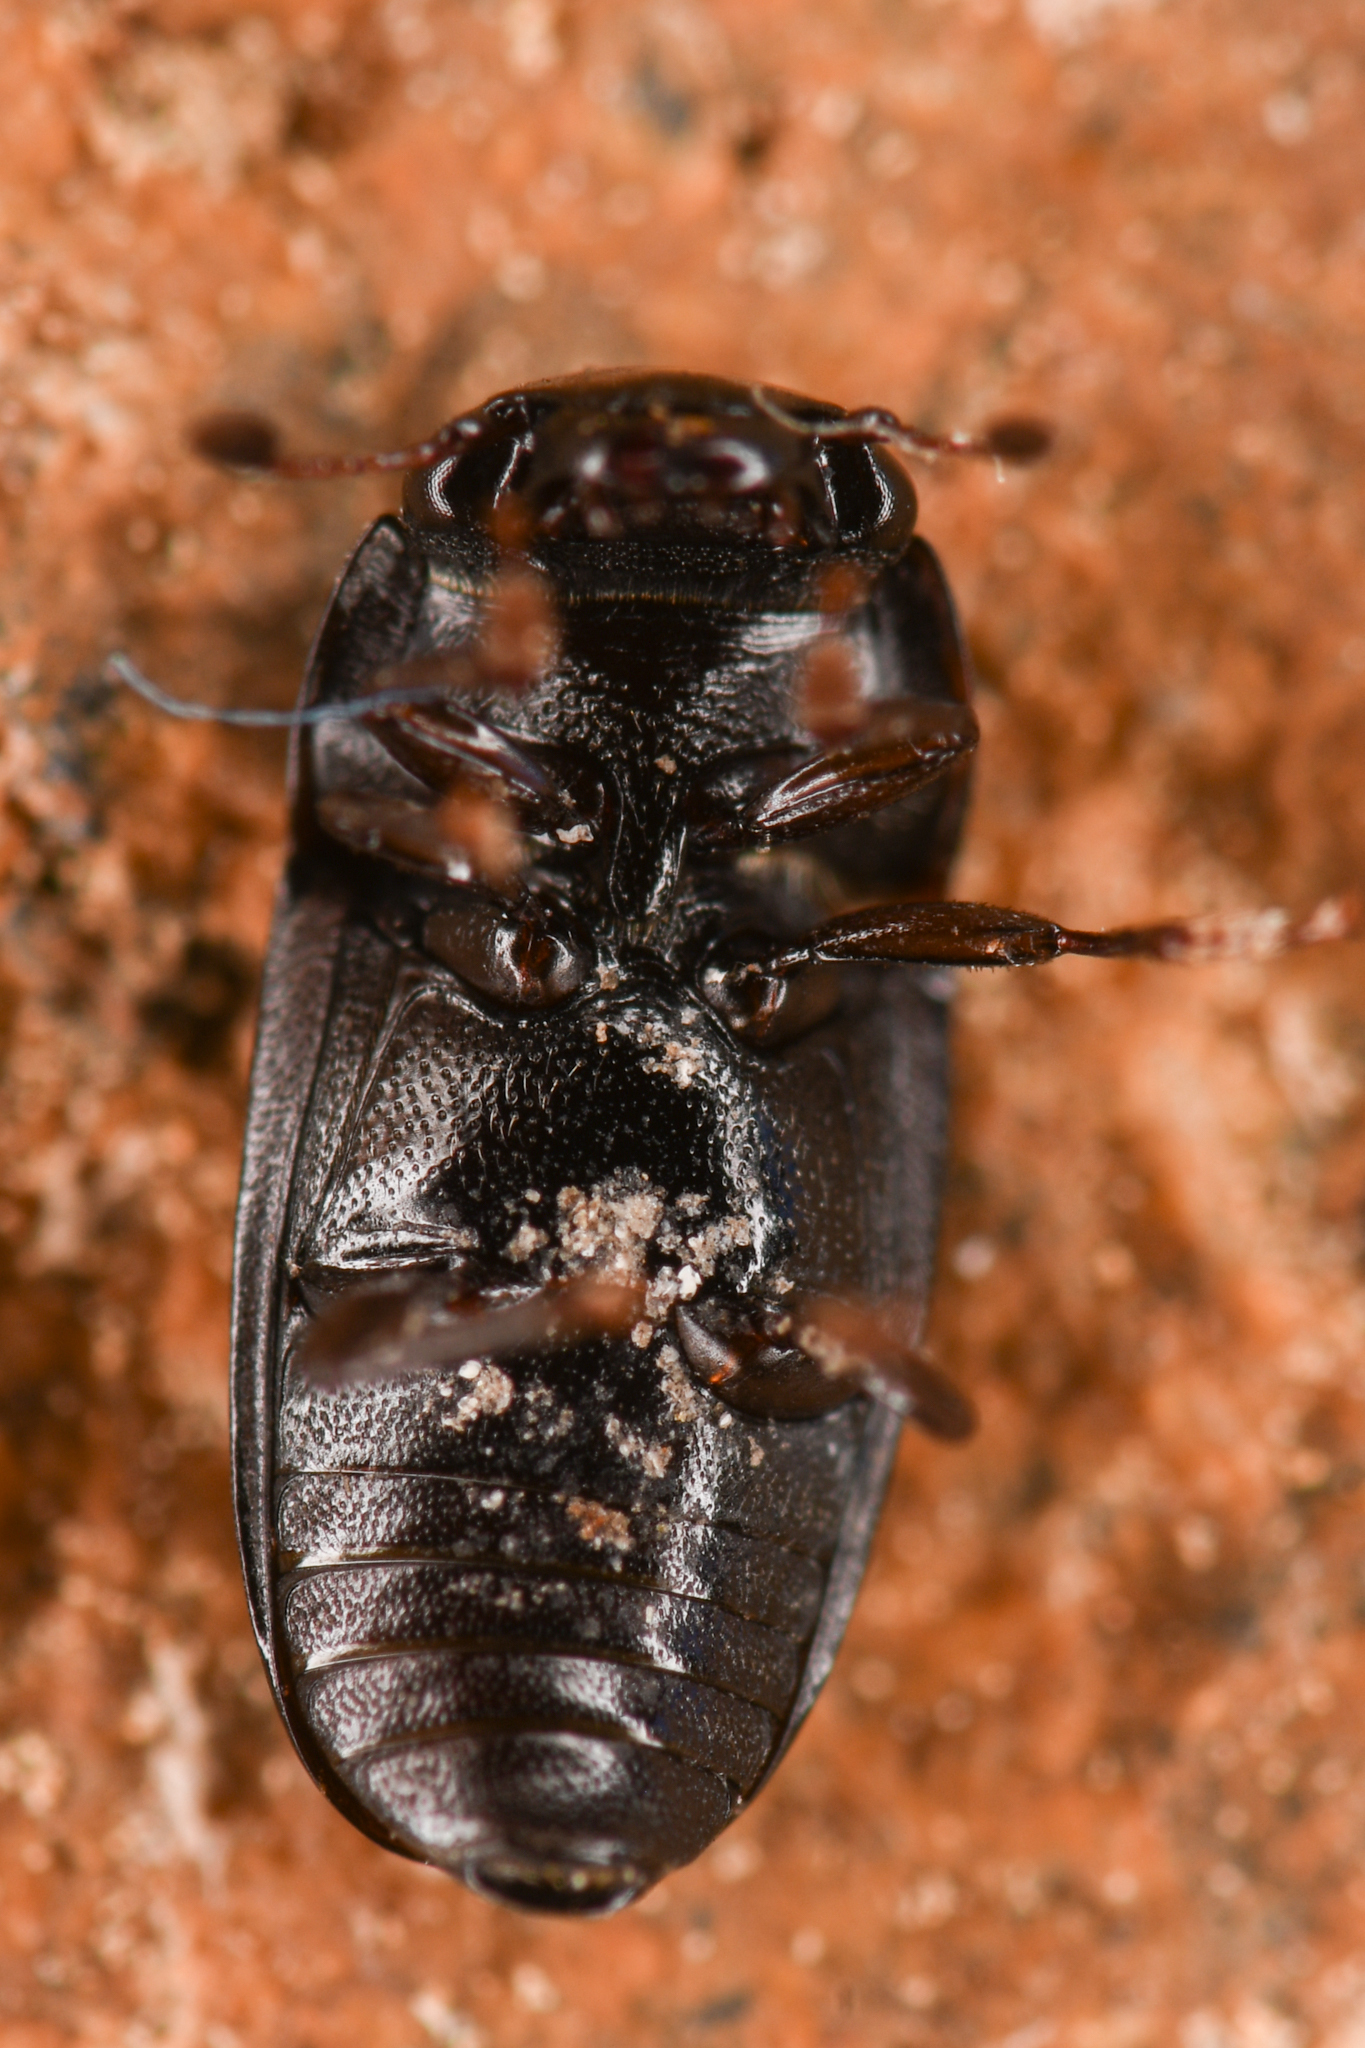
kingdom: Animalia
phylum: Arthropoda
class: Insecta
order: Coleoptera
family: Nitidulidae
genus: Glischrochilus
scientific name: Glischrochilus siepmanni
